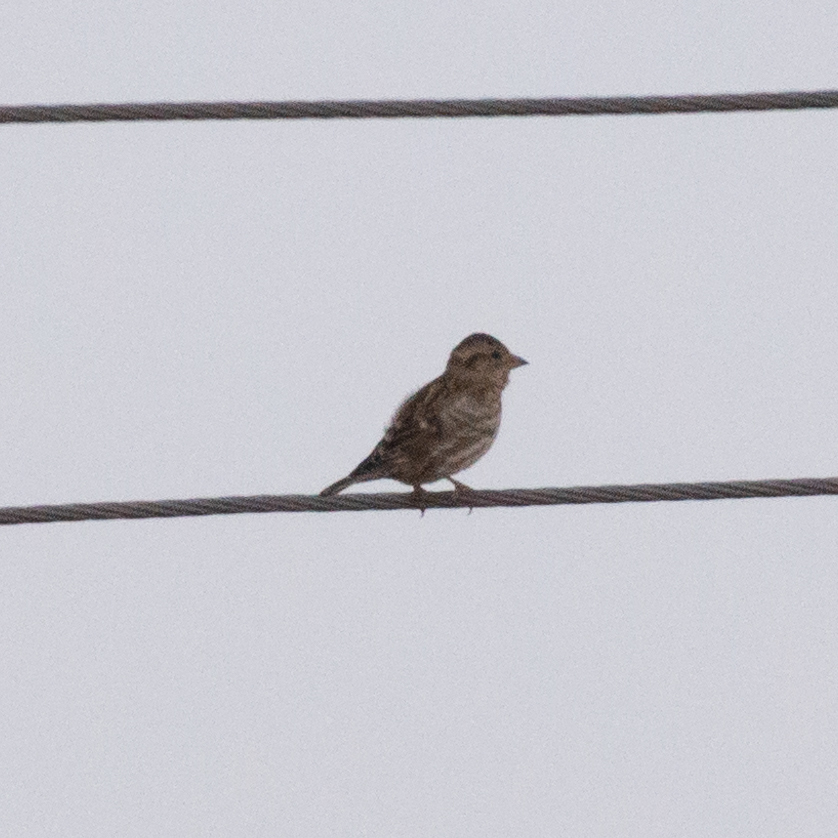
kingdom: Animalia
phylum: Chordata
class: Aves
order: Passeriformes
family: Passeridae
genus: Petronia
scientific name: Petronia petronia
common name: Rock sparrow
